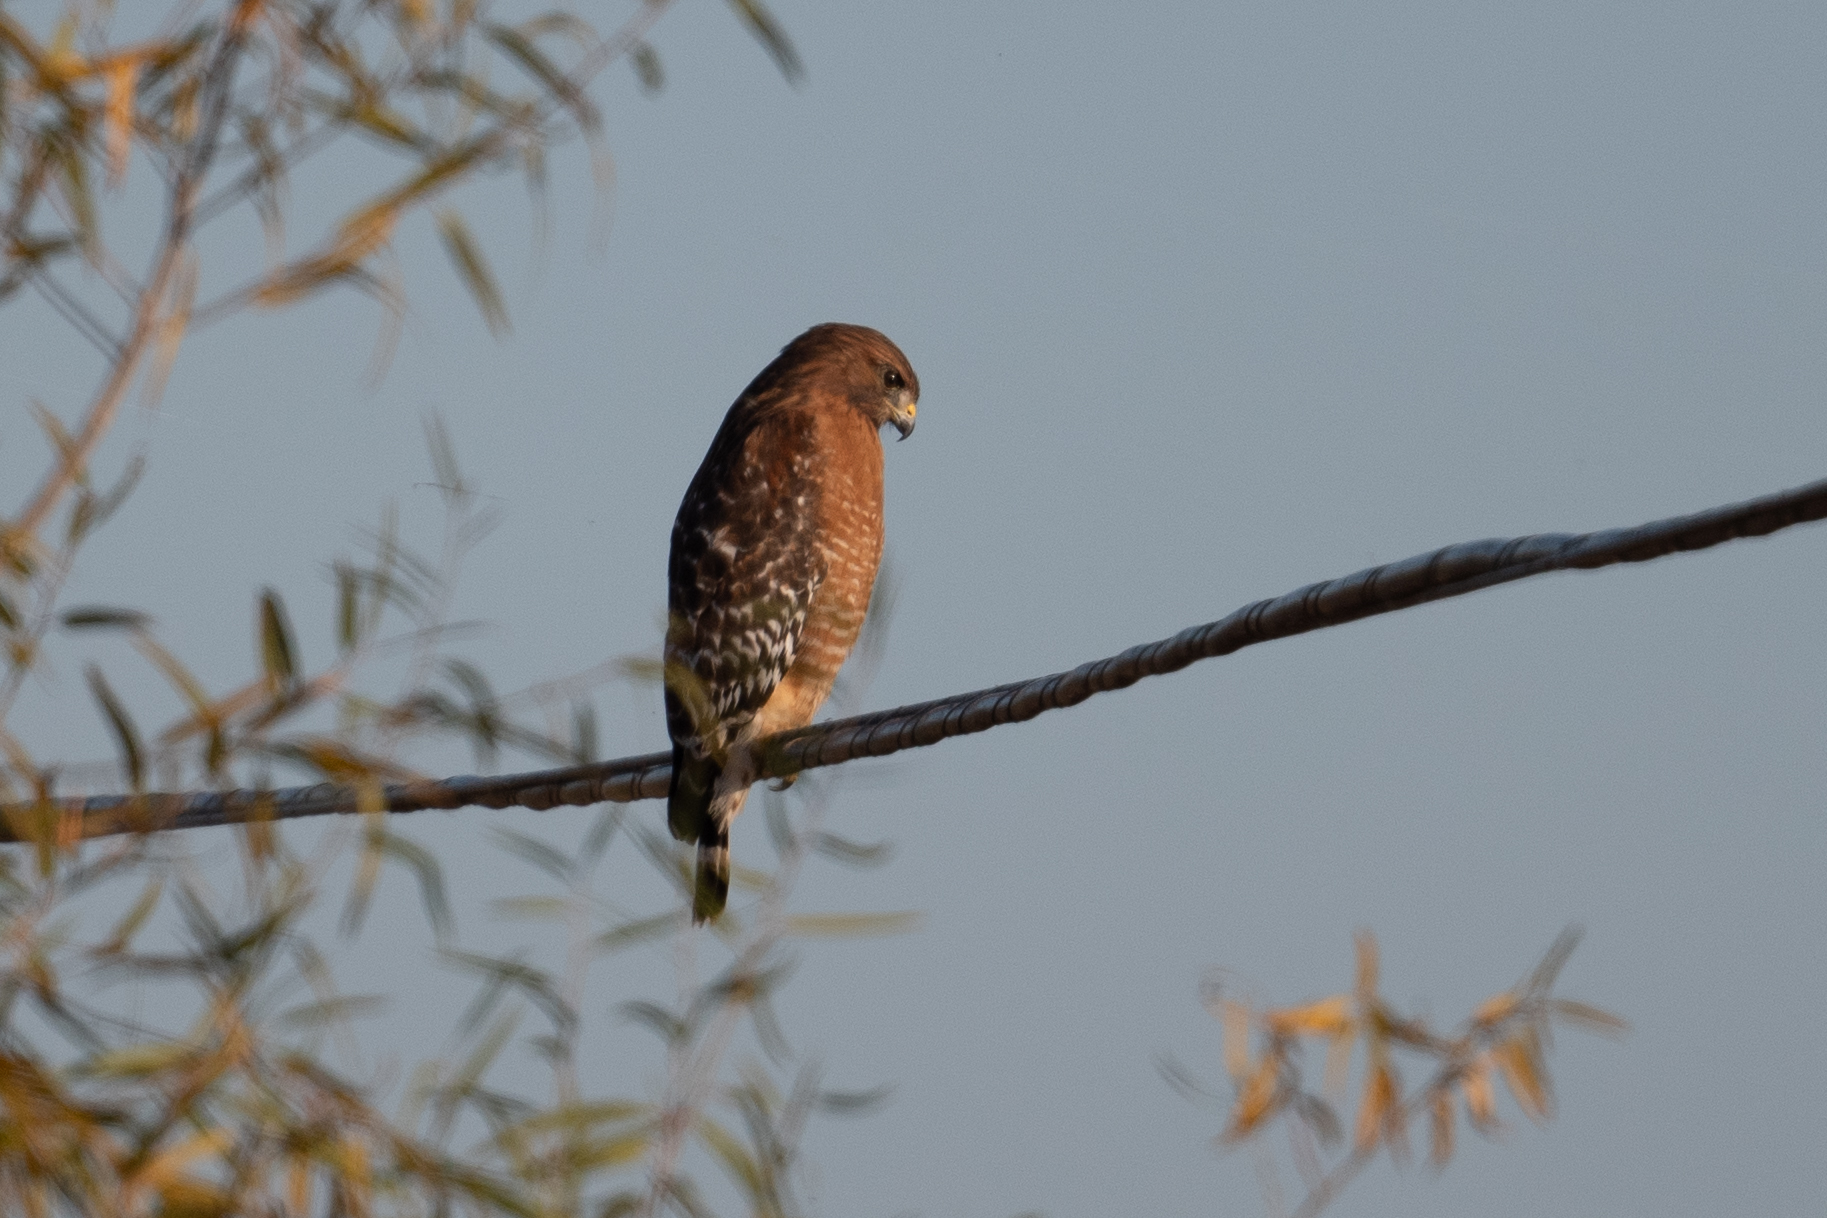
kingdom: Animalia
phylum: Chordata
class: Aves
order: Accipitriformes
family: Accipitridae
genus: Buteo
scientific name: Buteo lineatus
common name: Red-shouldered hawk
